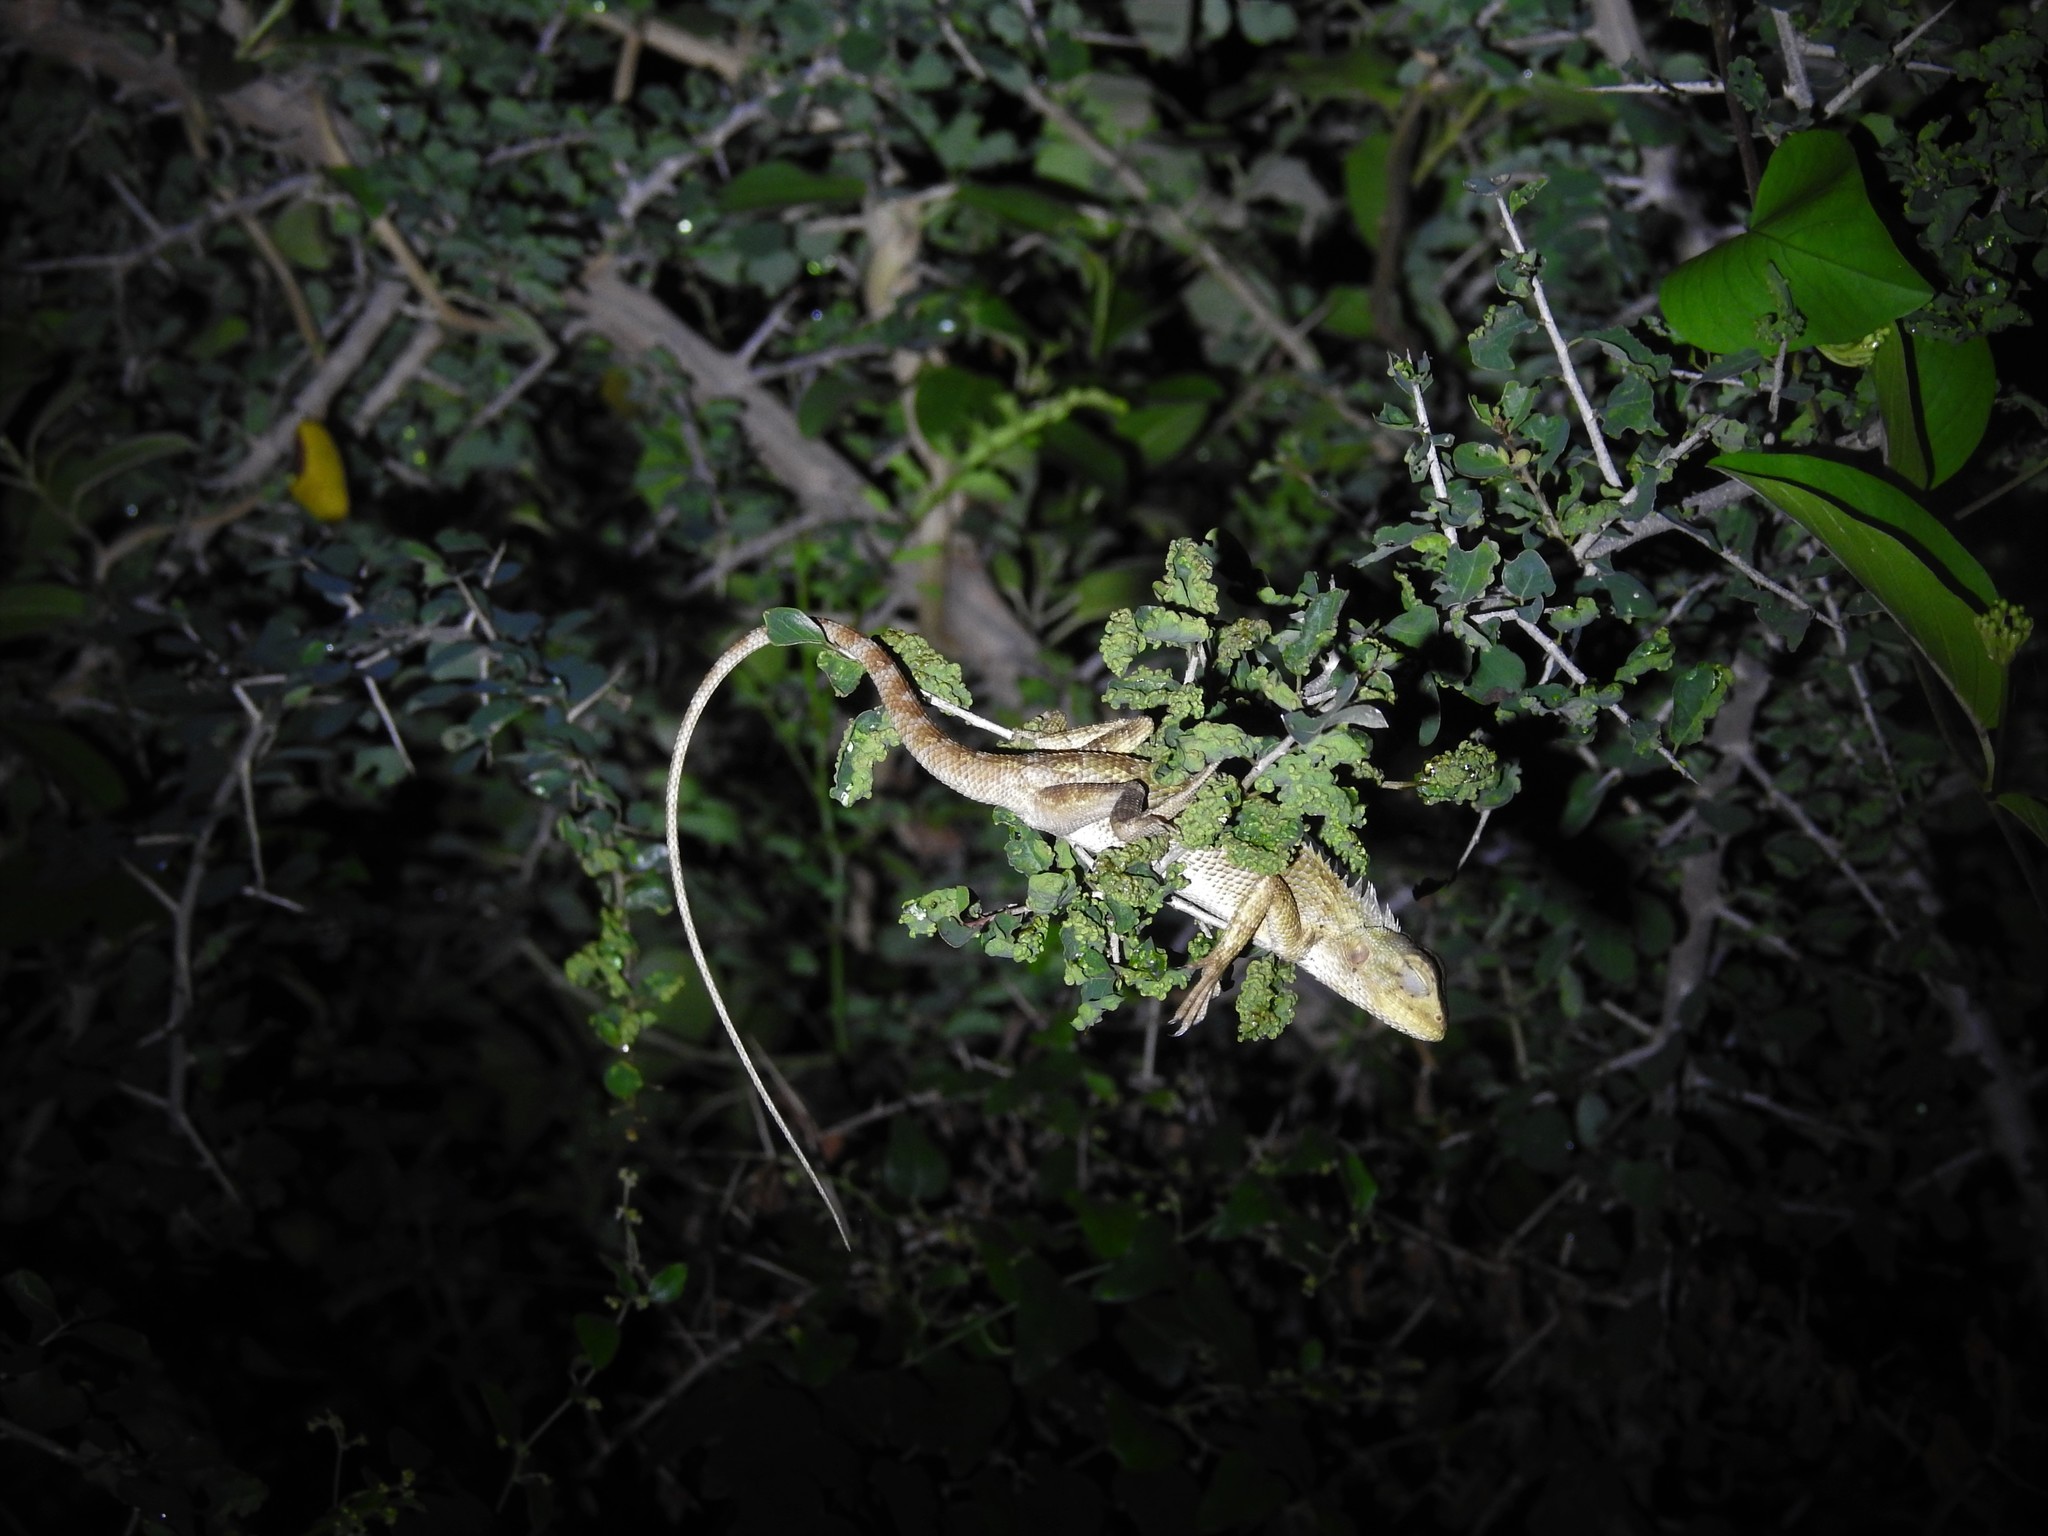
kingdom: Animalia
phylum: Chordata
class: Squamata
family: Agamidae
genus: Calotes
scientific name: Calotes versicolor
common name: Oriental garden lizard
